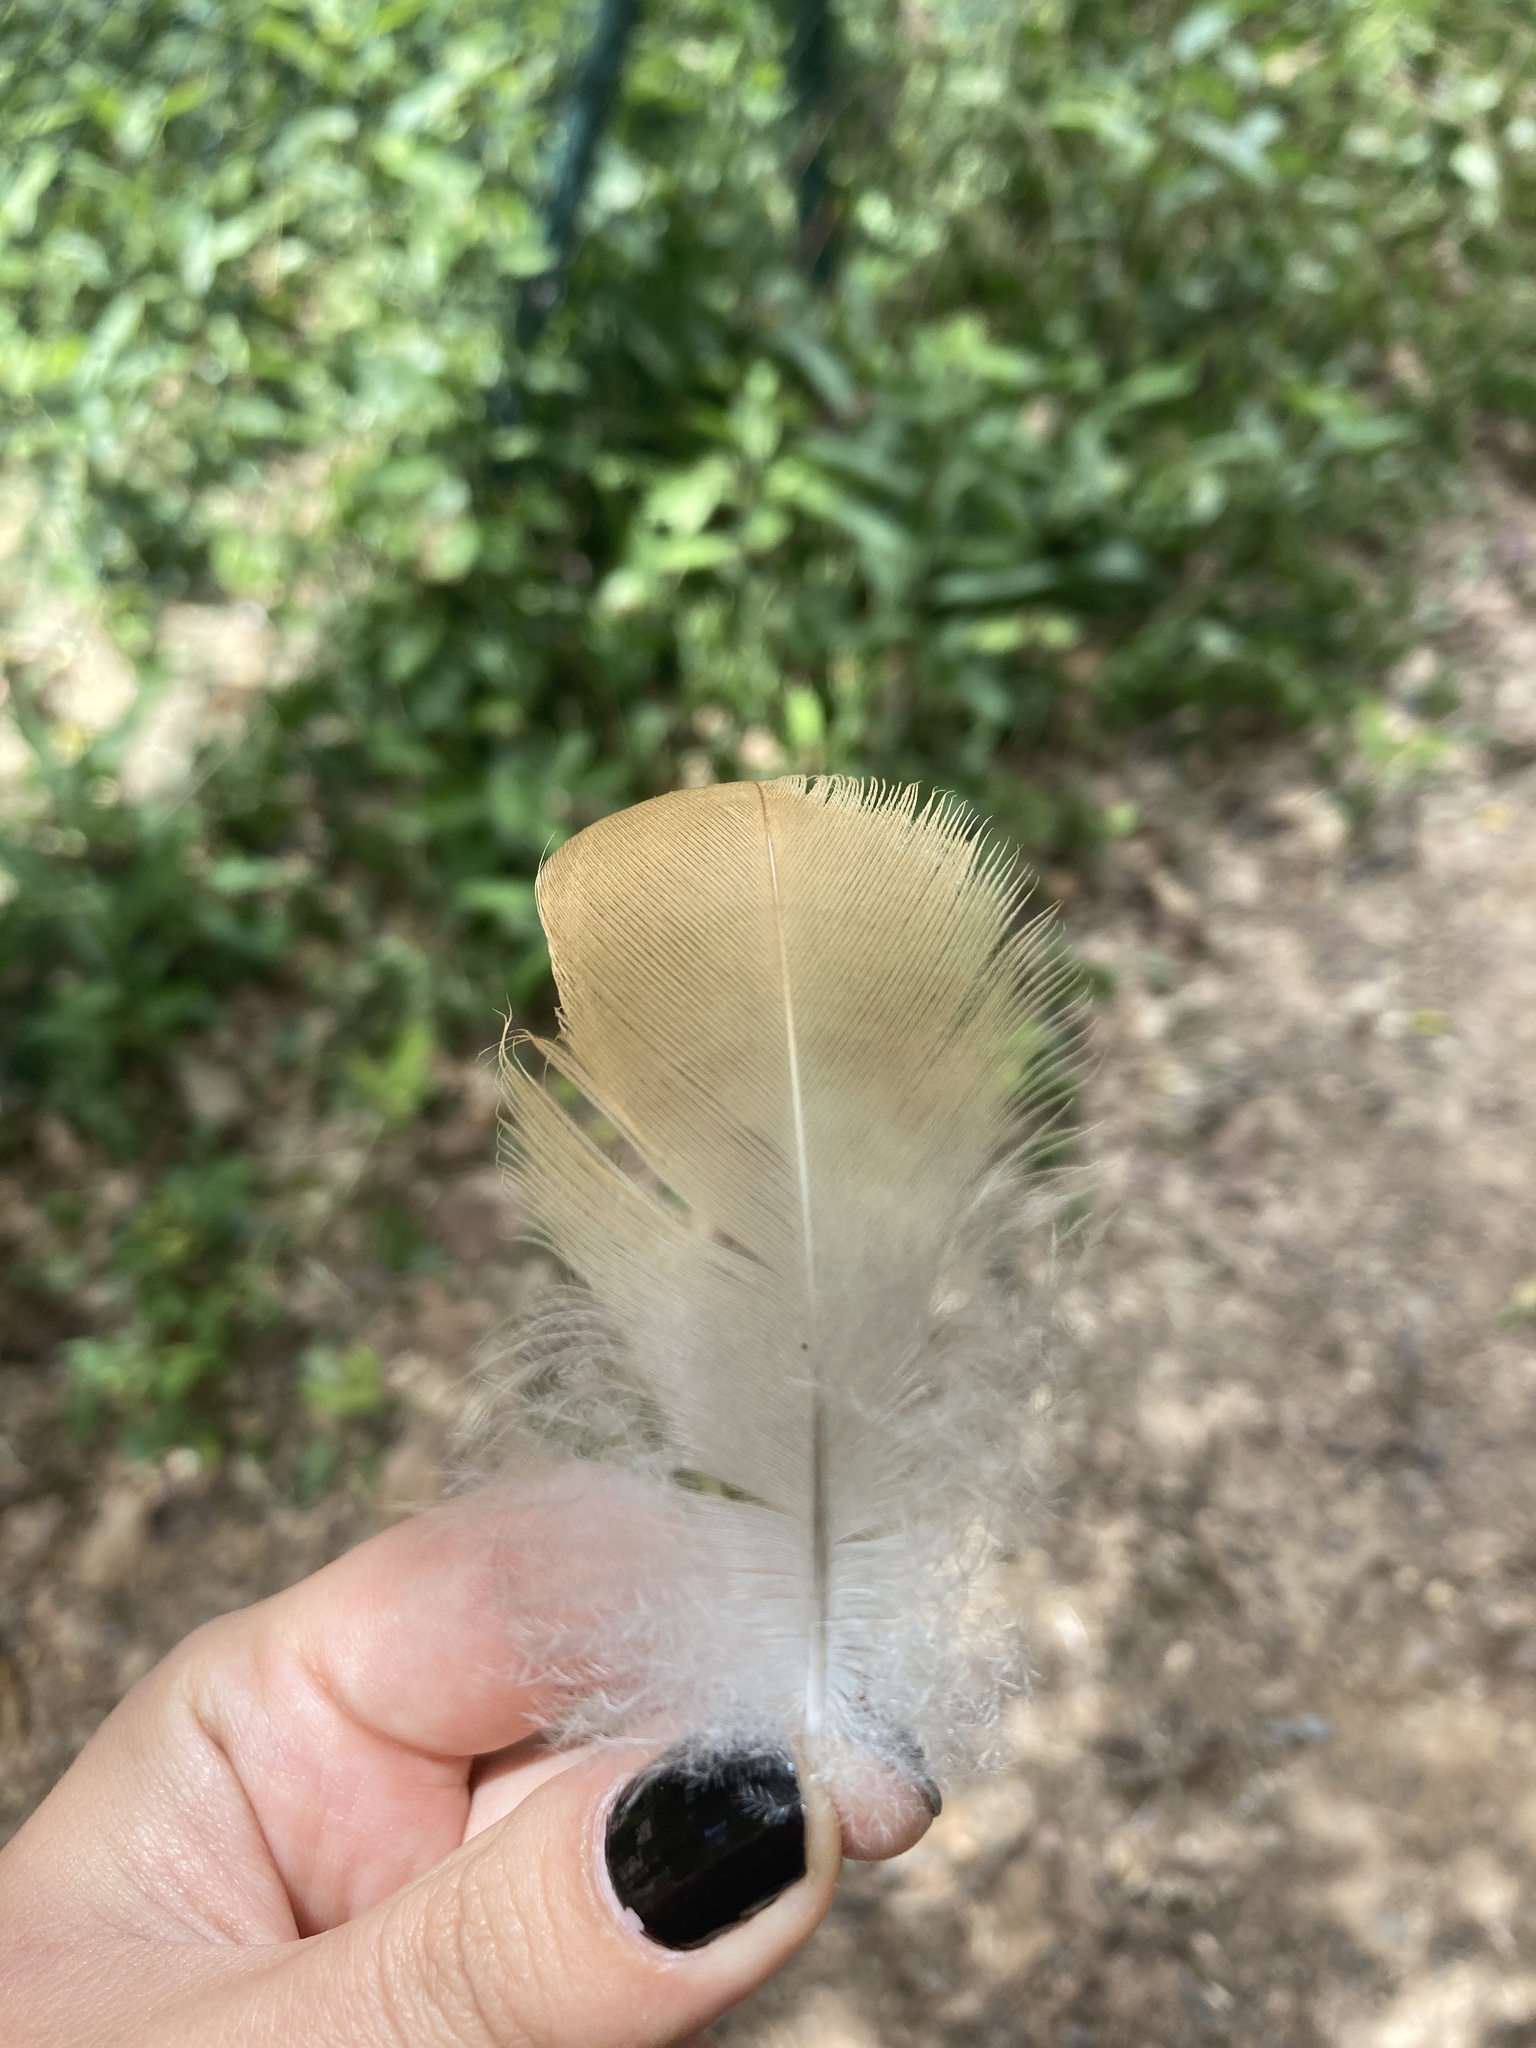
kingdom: Animalia
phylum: Chordata
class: Aves
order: Anseriformes
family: Anatidae
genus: Tadorna
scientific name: Tadorna ferruginea
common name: Ruddy shelduck
